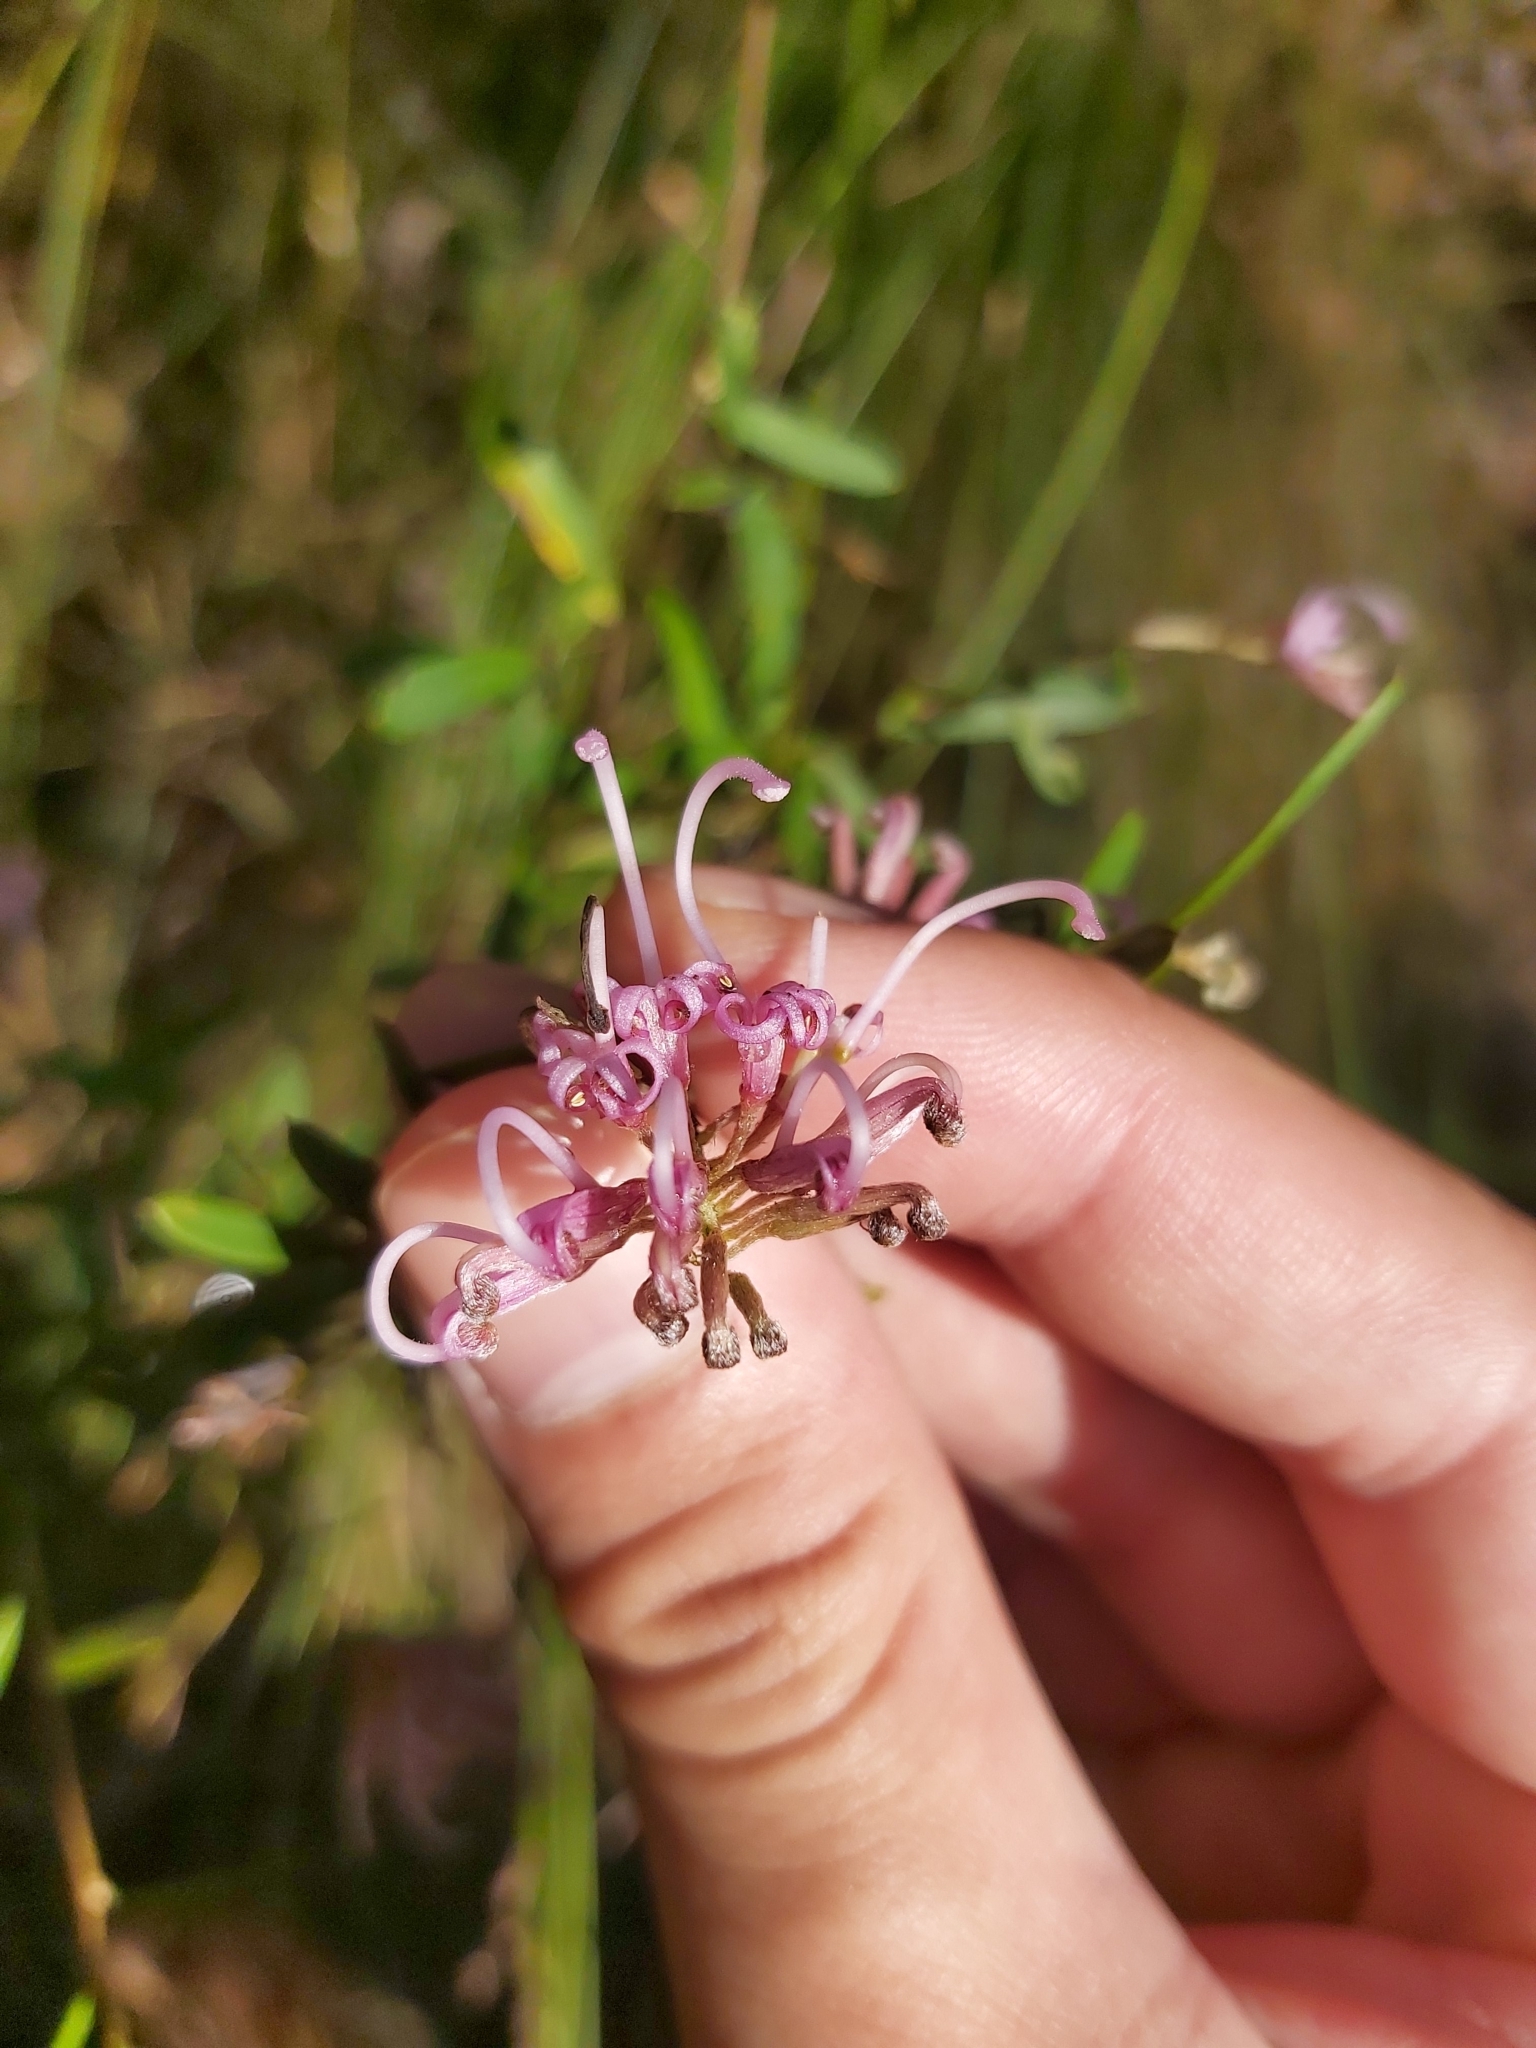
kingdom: Plantae
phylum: Tracheophyta
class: Magnoliopsida
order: Proteales
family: Proteaceae
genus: Grevillea
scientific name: Grevillea sericea
